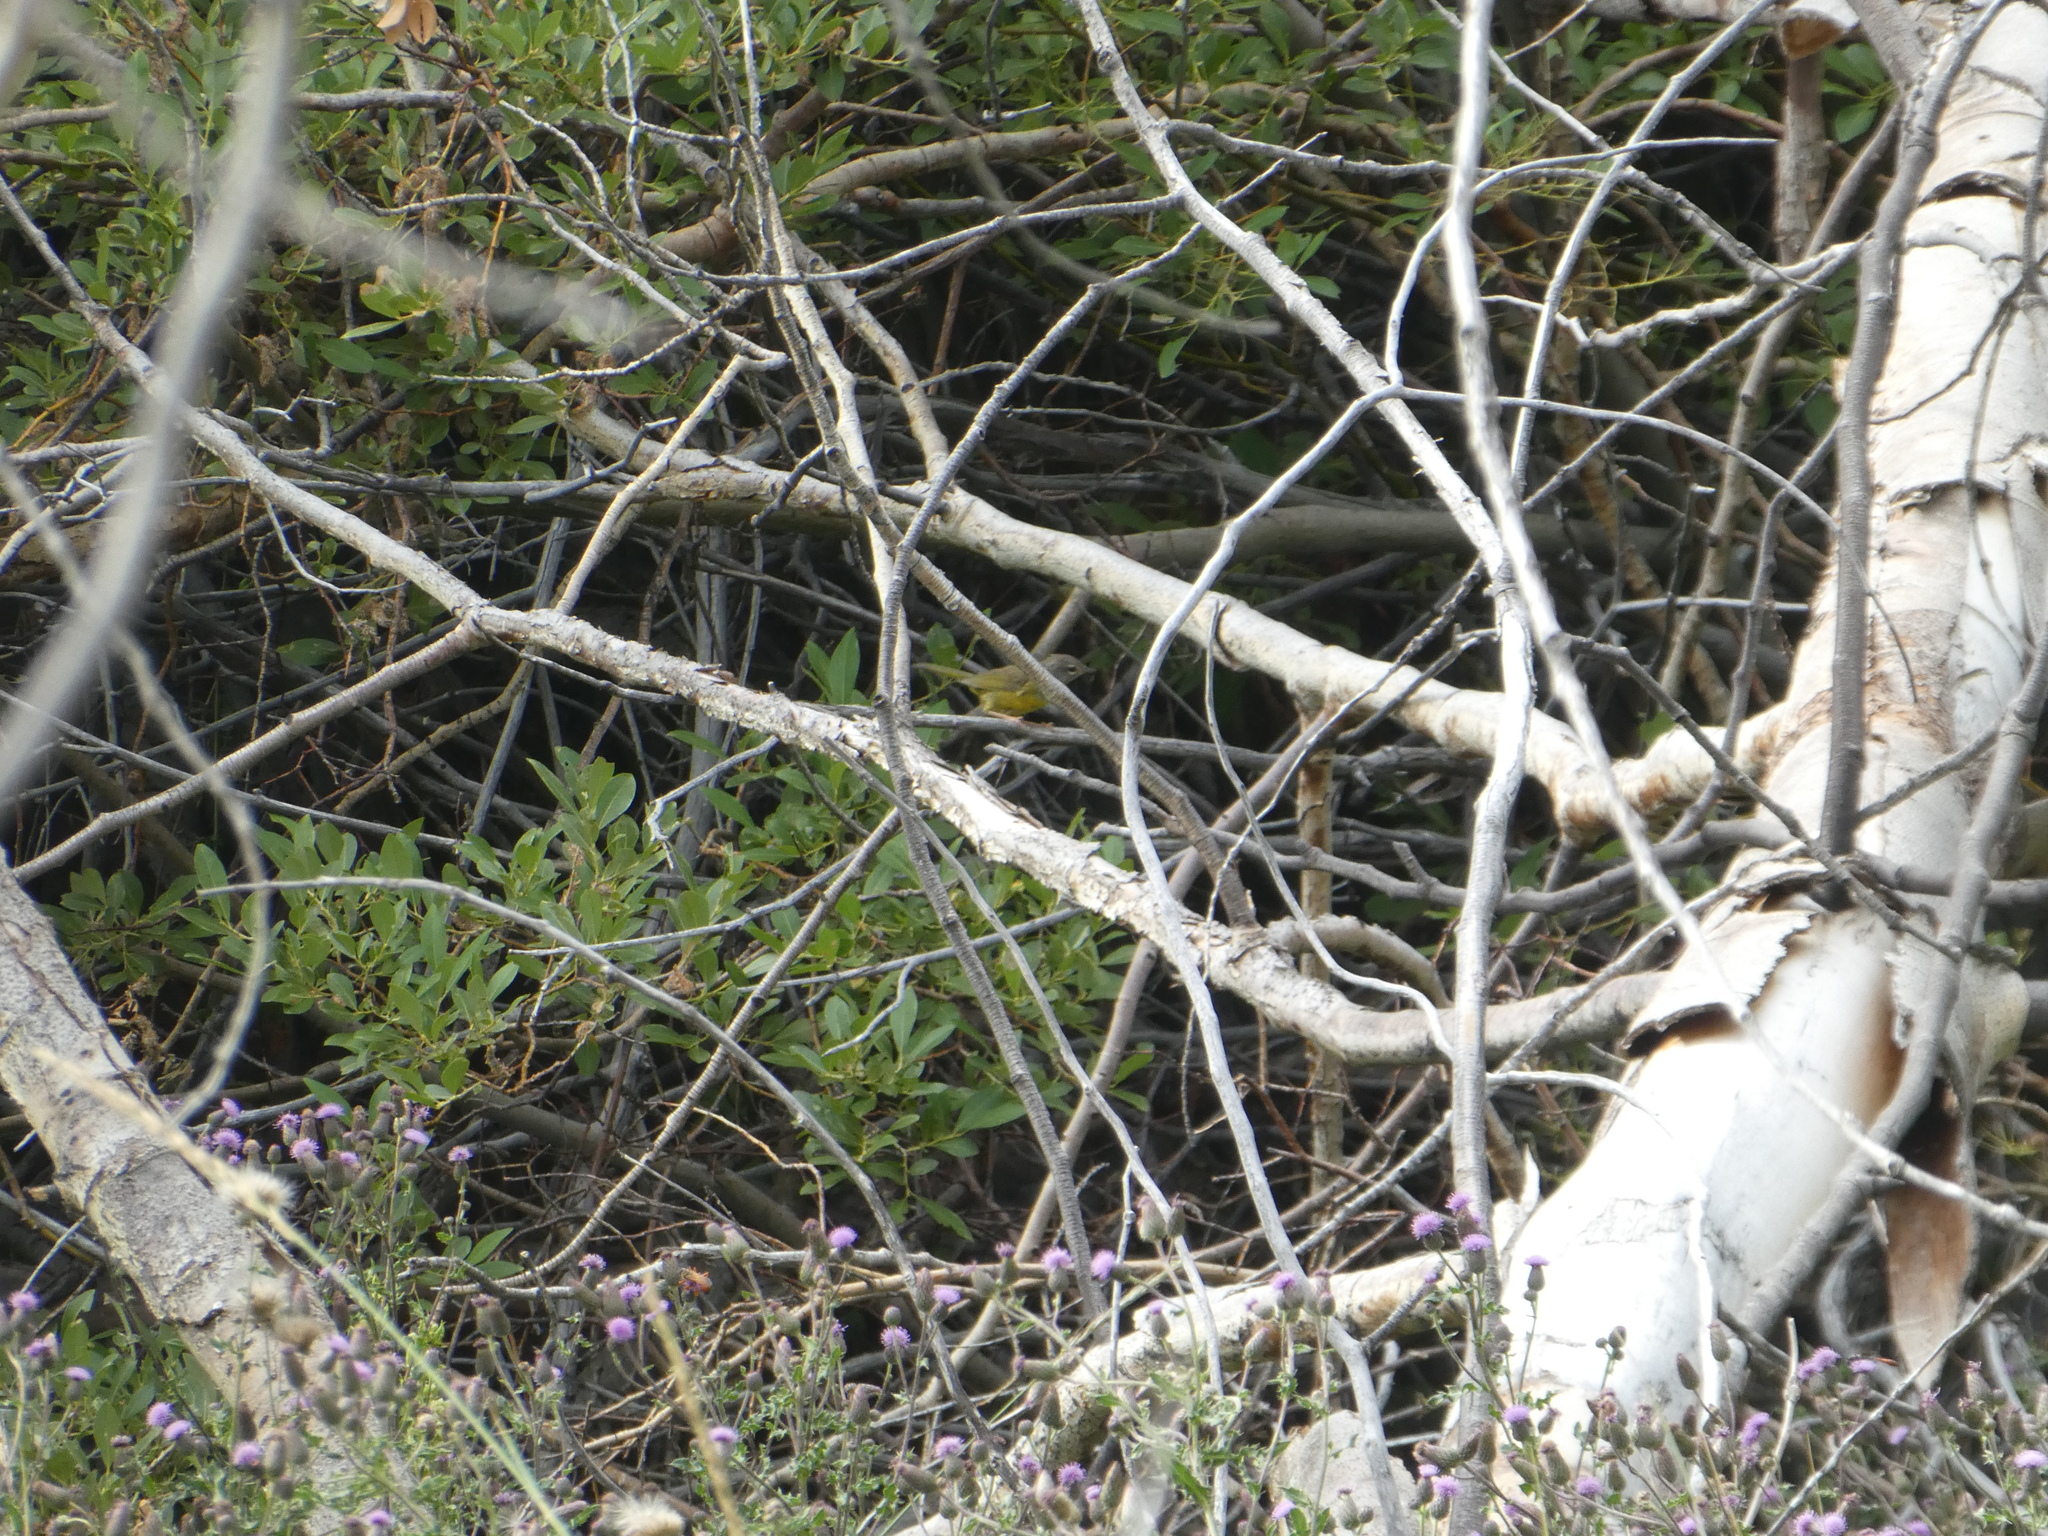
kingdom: Animalia
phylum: Chordata
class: Aves
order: Passeriformes
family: Parulidae
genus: Geothlypis
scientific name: Geothlypis tolmiei
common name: Macgillivray's warbler
